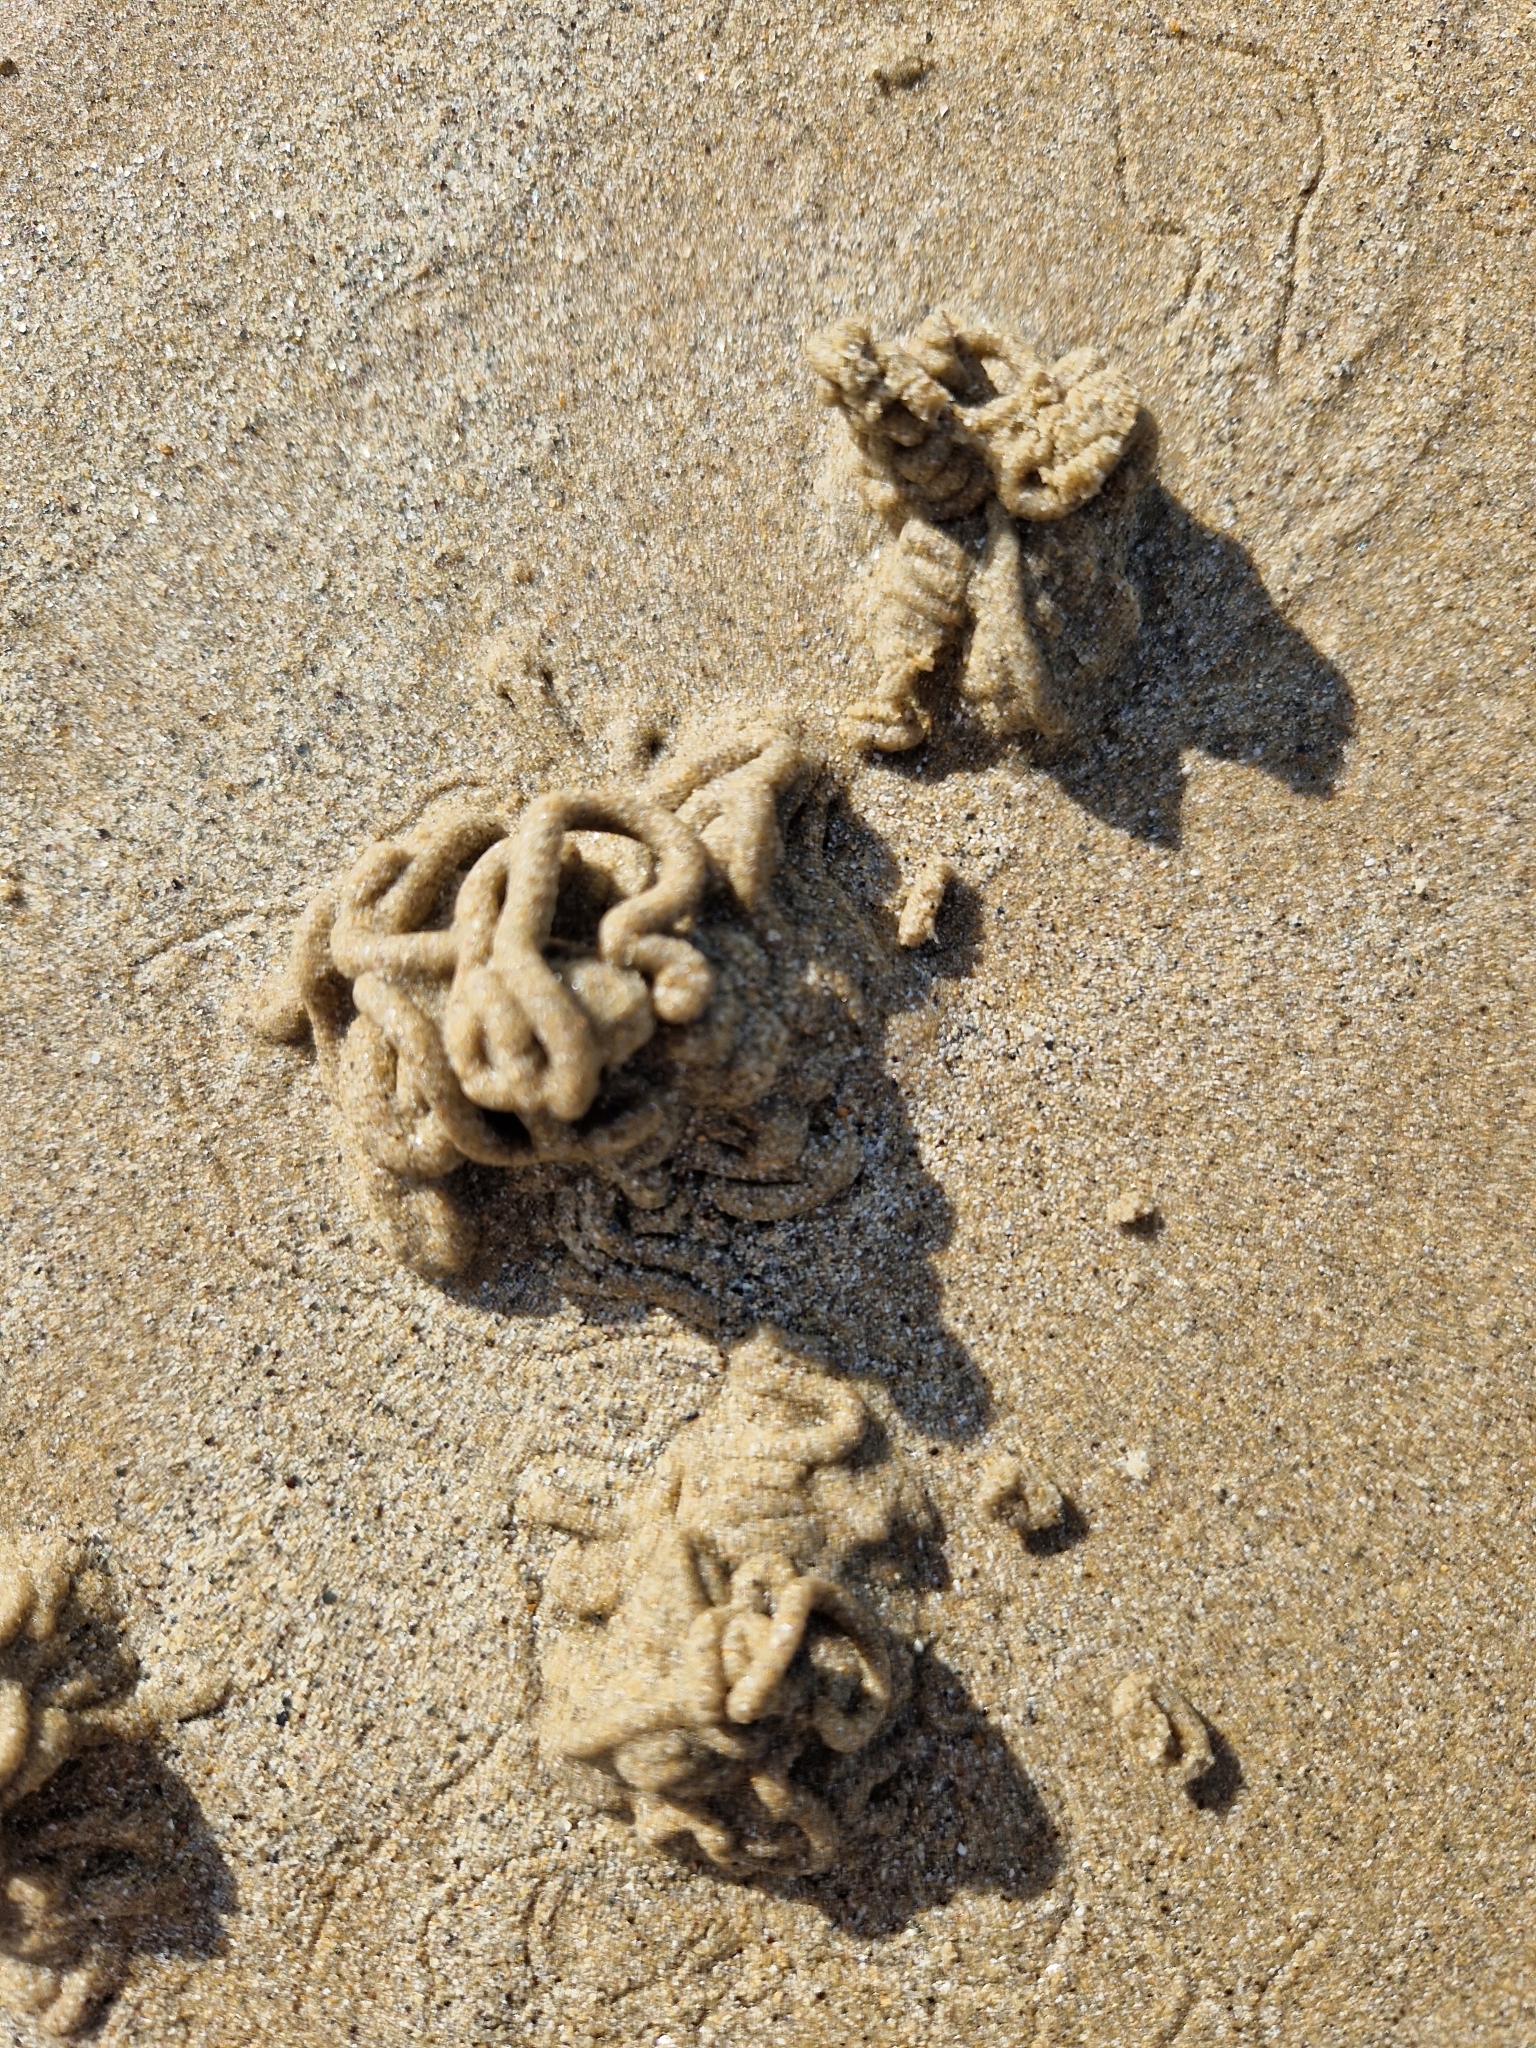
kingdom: Animalia
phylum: Annelida
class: Polychaeta
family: Arenicolidae
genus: Arenicola
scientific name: Arenicola marina
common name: Blow lugworm
